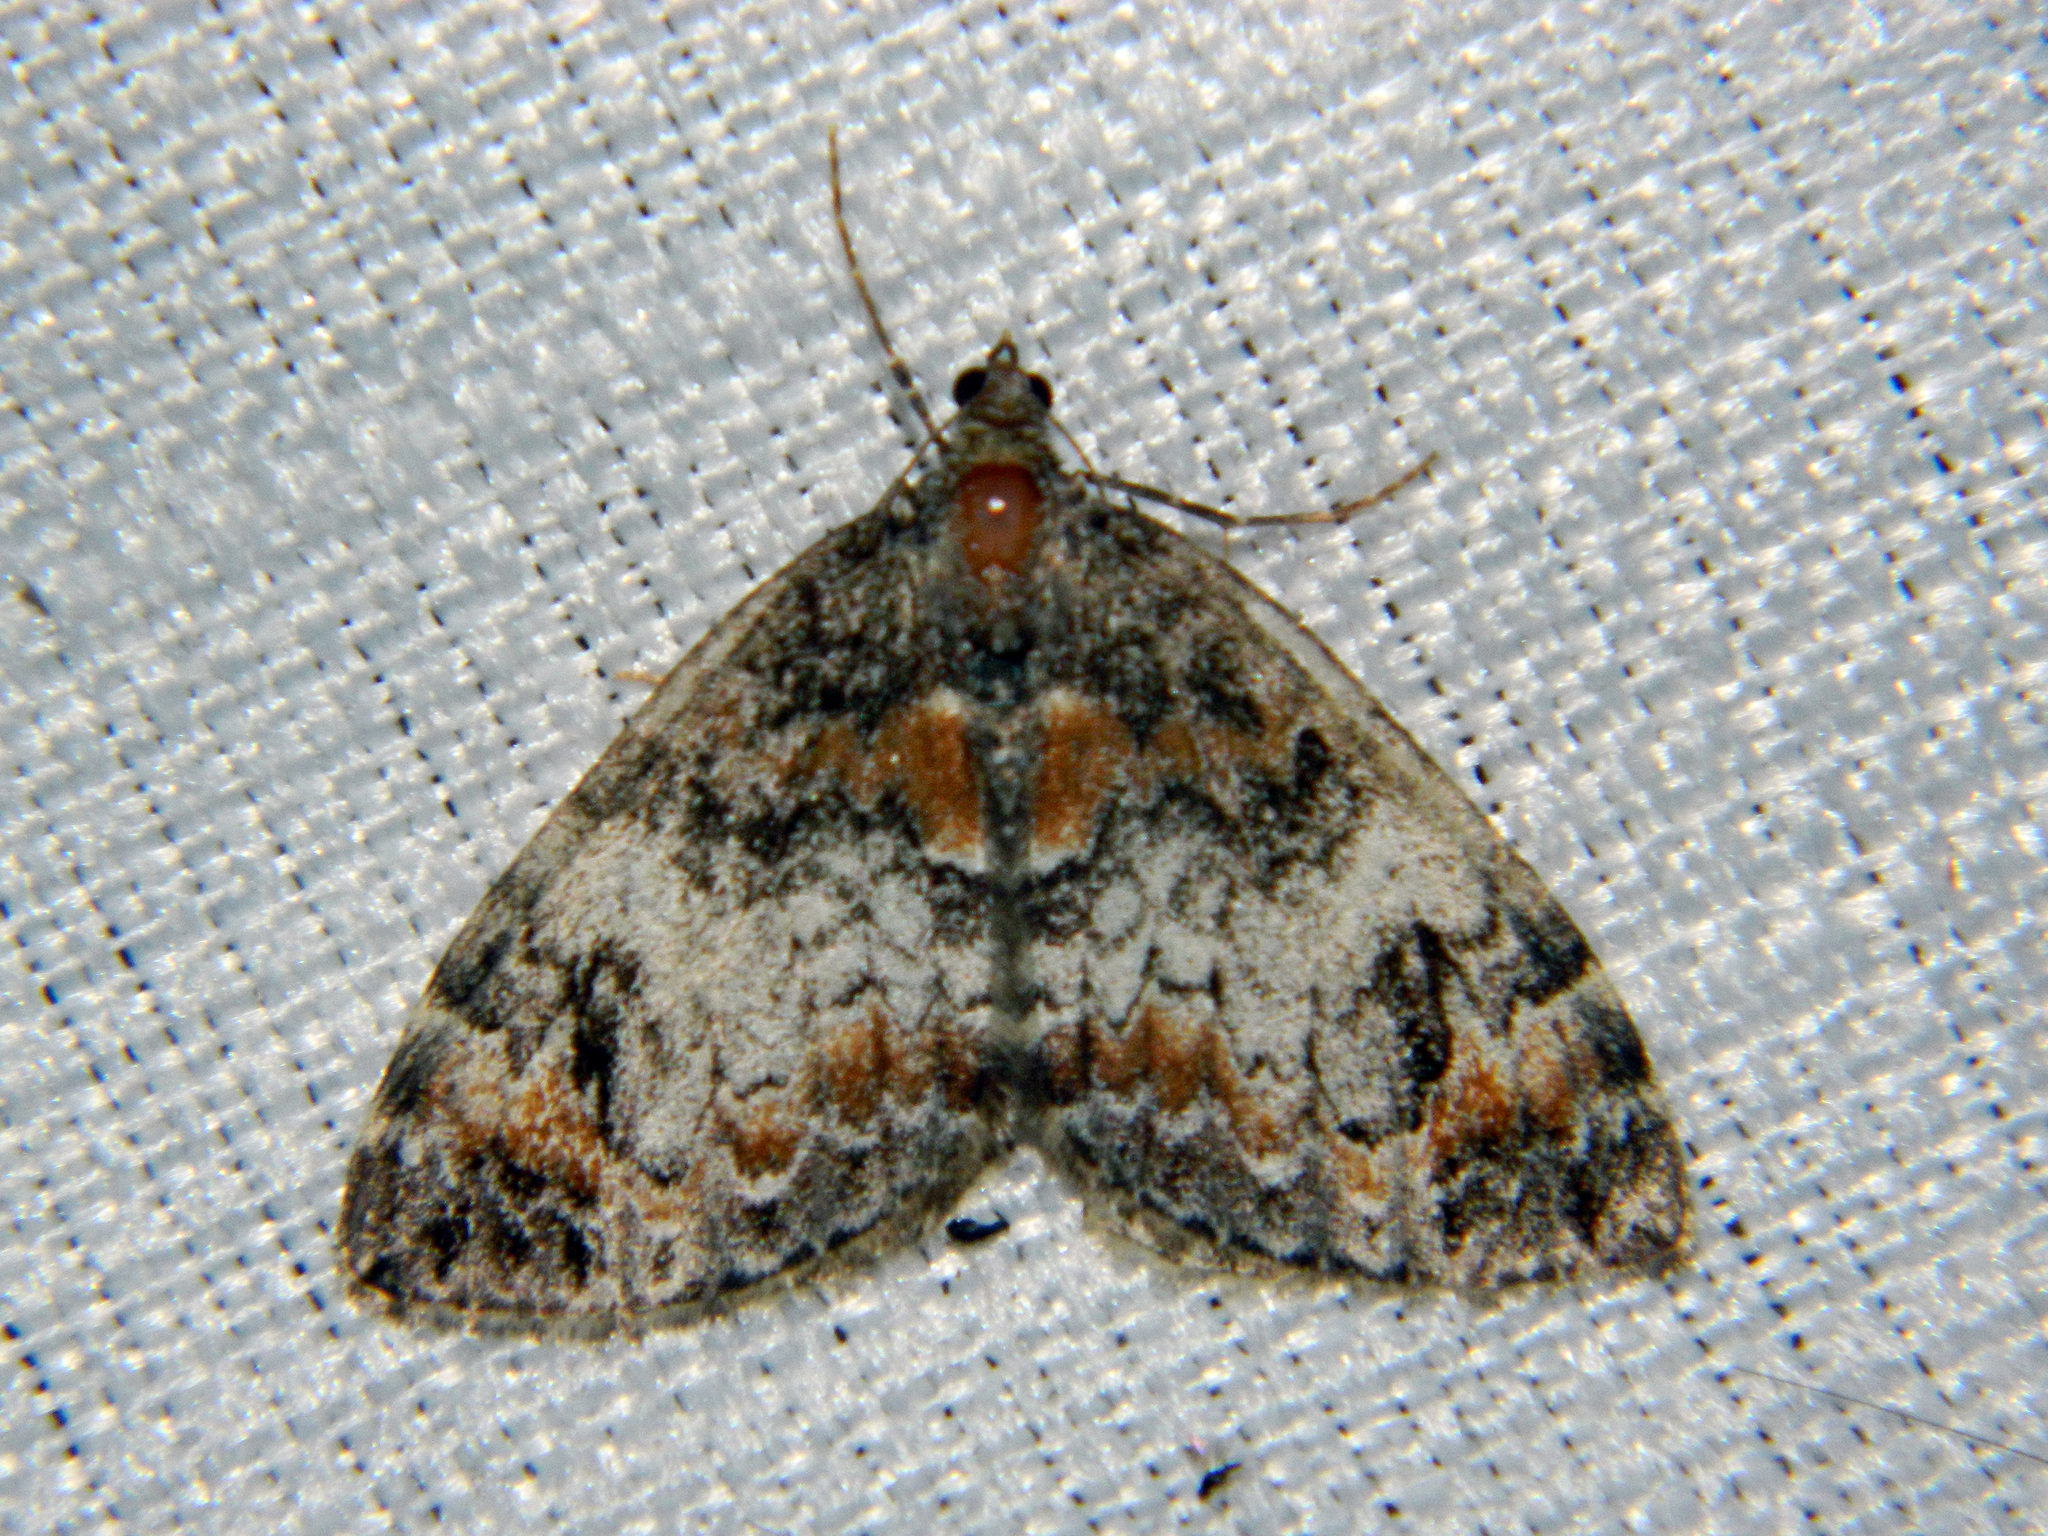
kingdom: Animalia
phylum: Arthropoda
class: Insecta
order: Lepidoptera
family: Geometridae
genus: Dysstroma
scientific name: Dysstroma truncata
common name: Common marbled carpet
